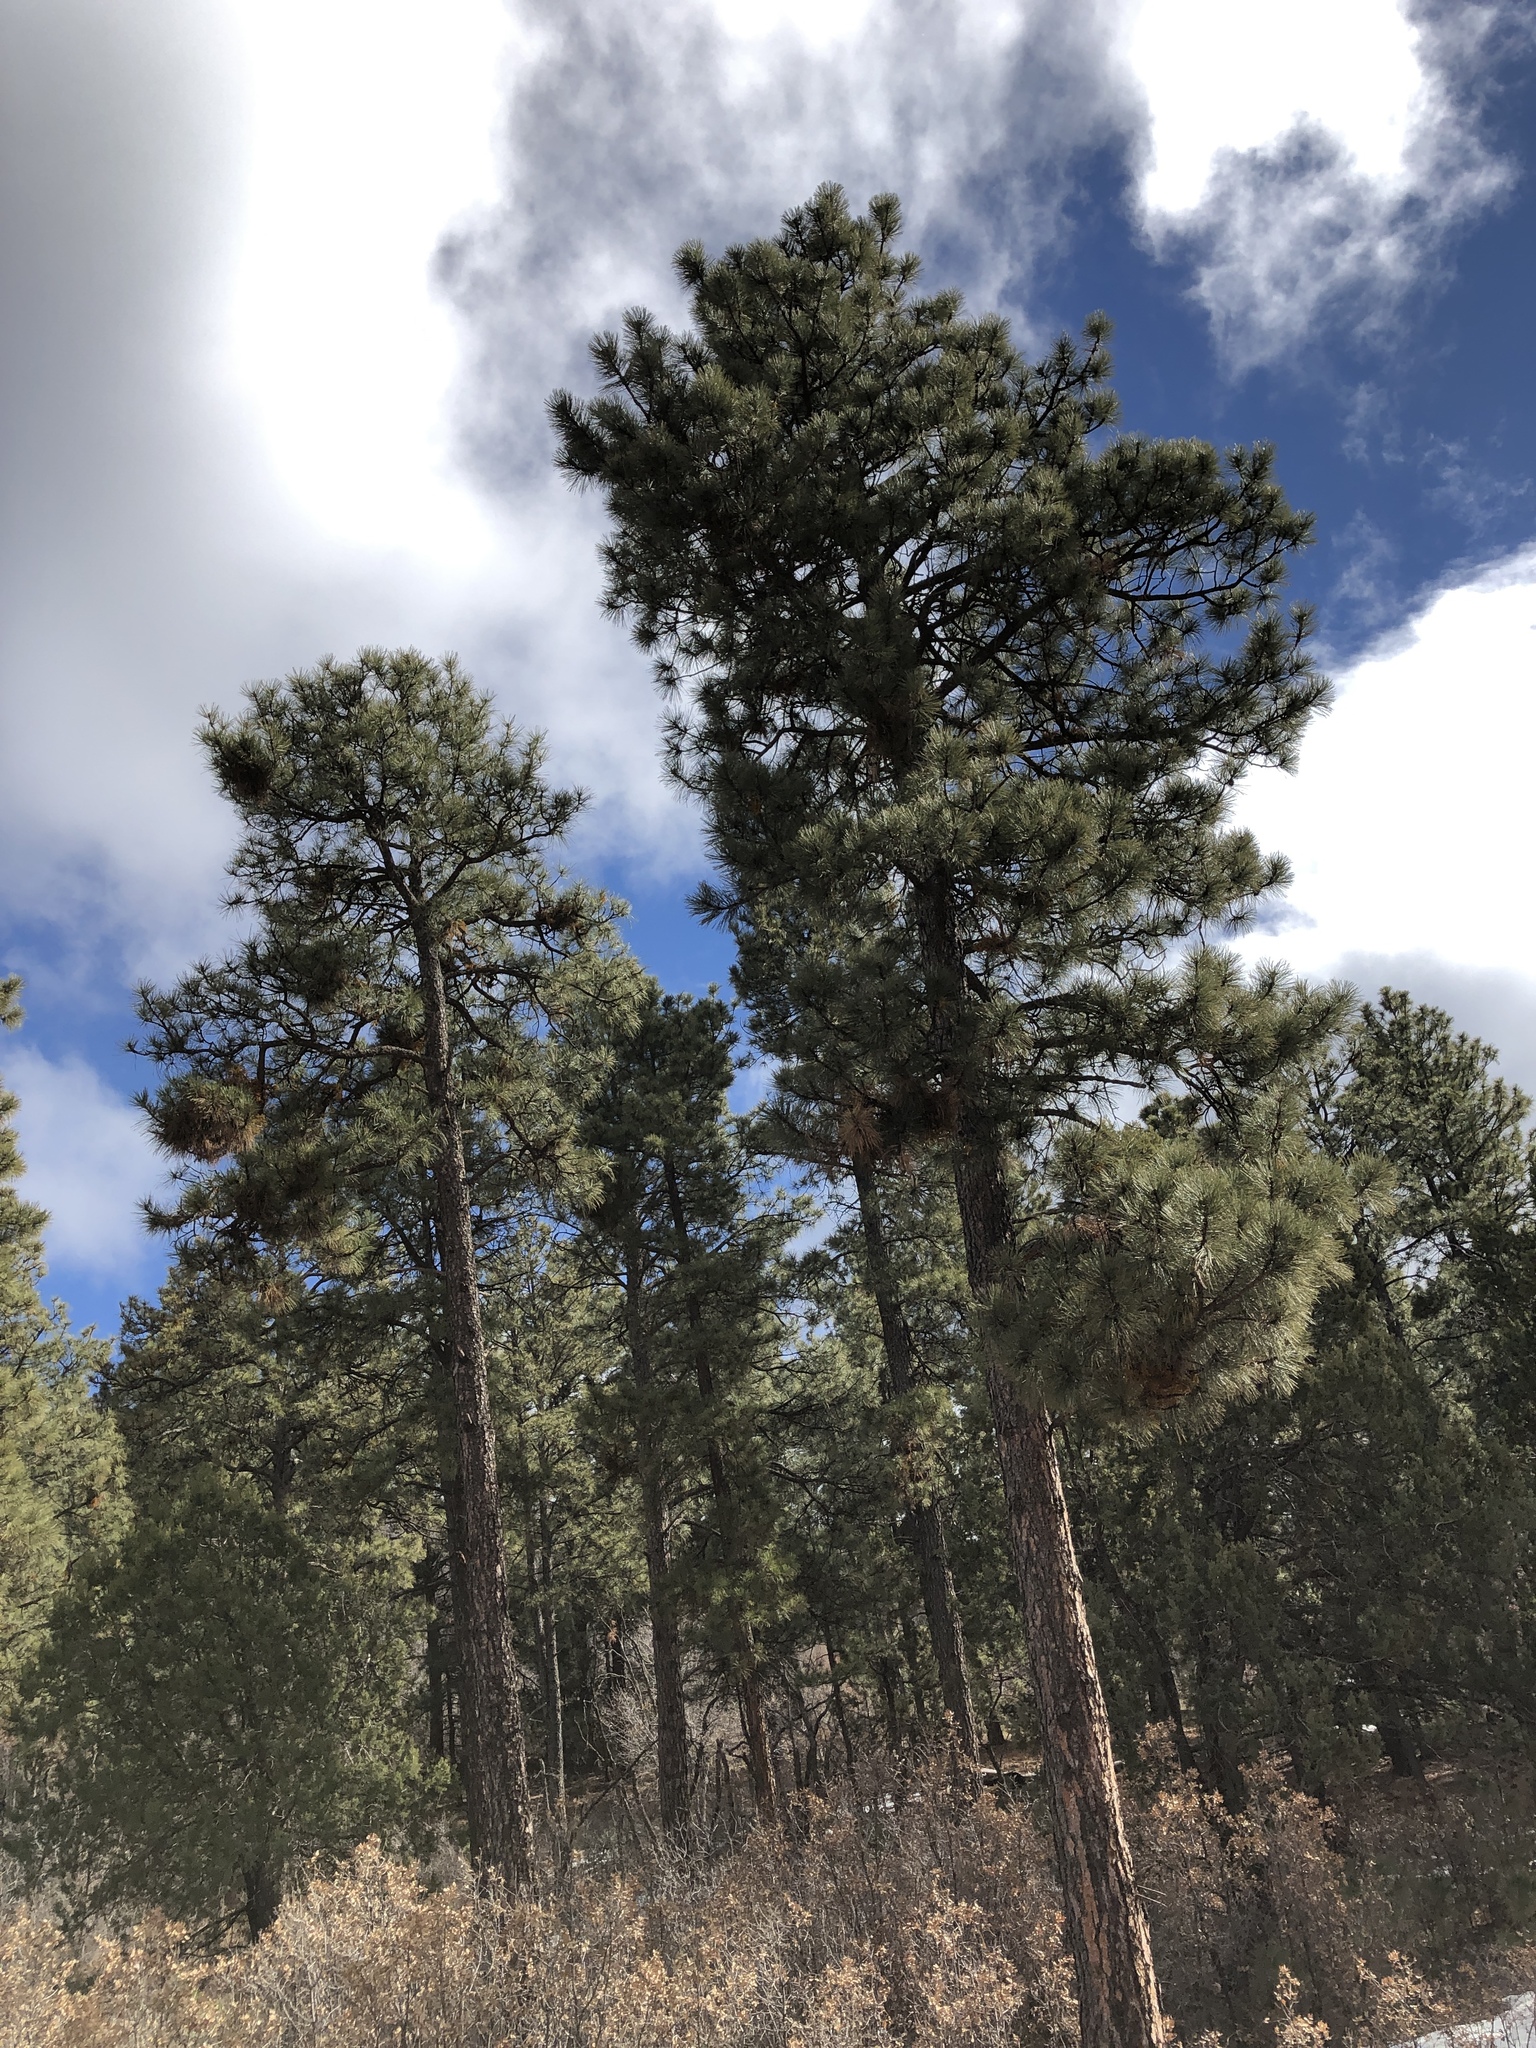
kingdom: Plantae
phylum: Tracheophyta
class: Pinopsida
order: Pinales
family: Pinaceae
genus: Pinus
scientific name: Pinus ponderosa
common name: Western yellow-pine
